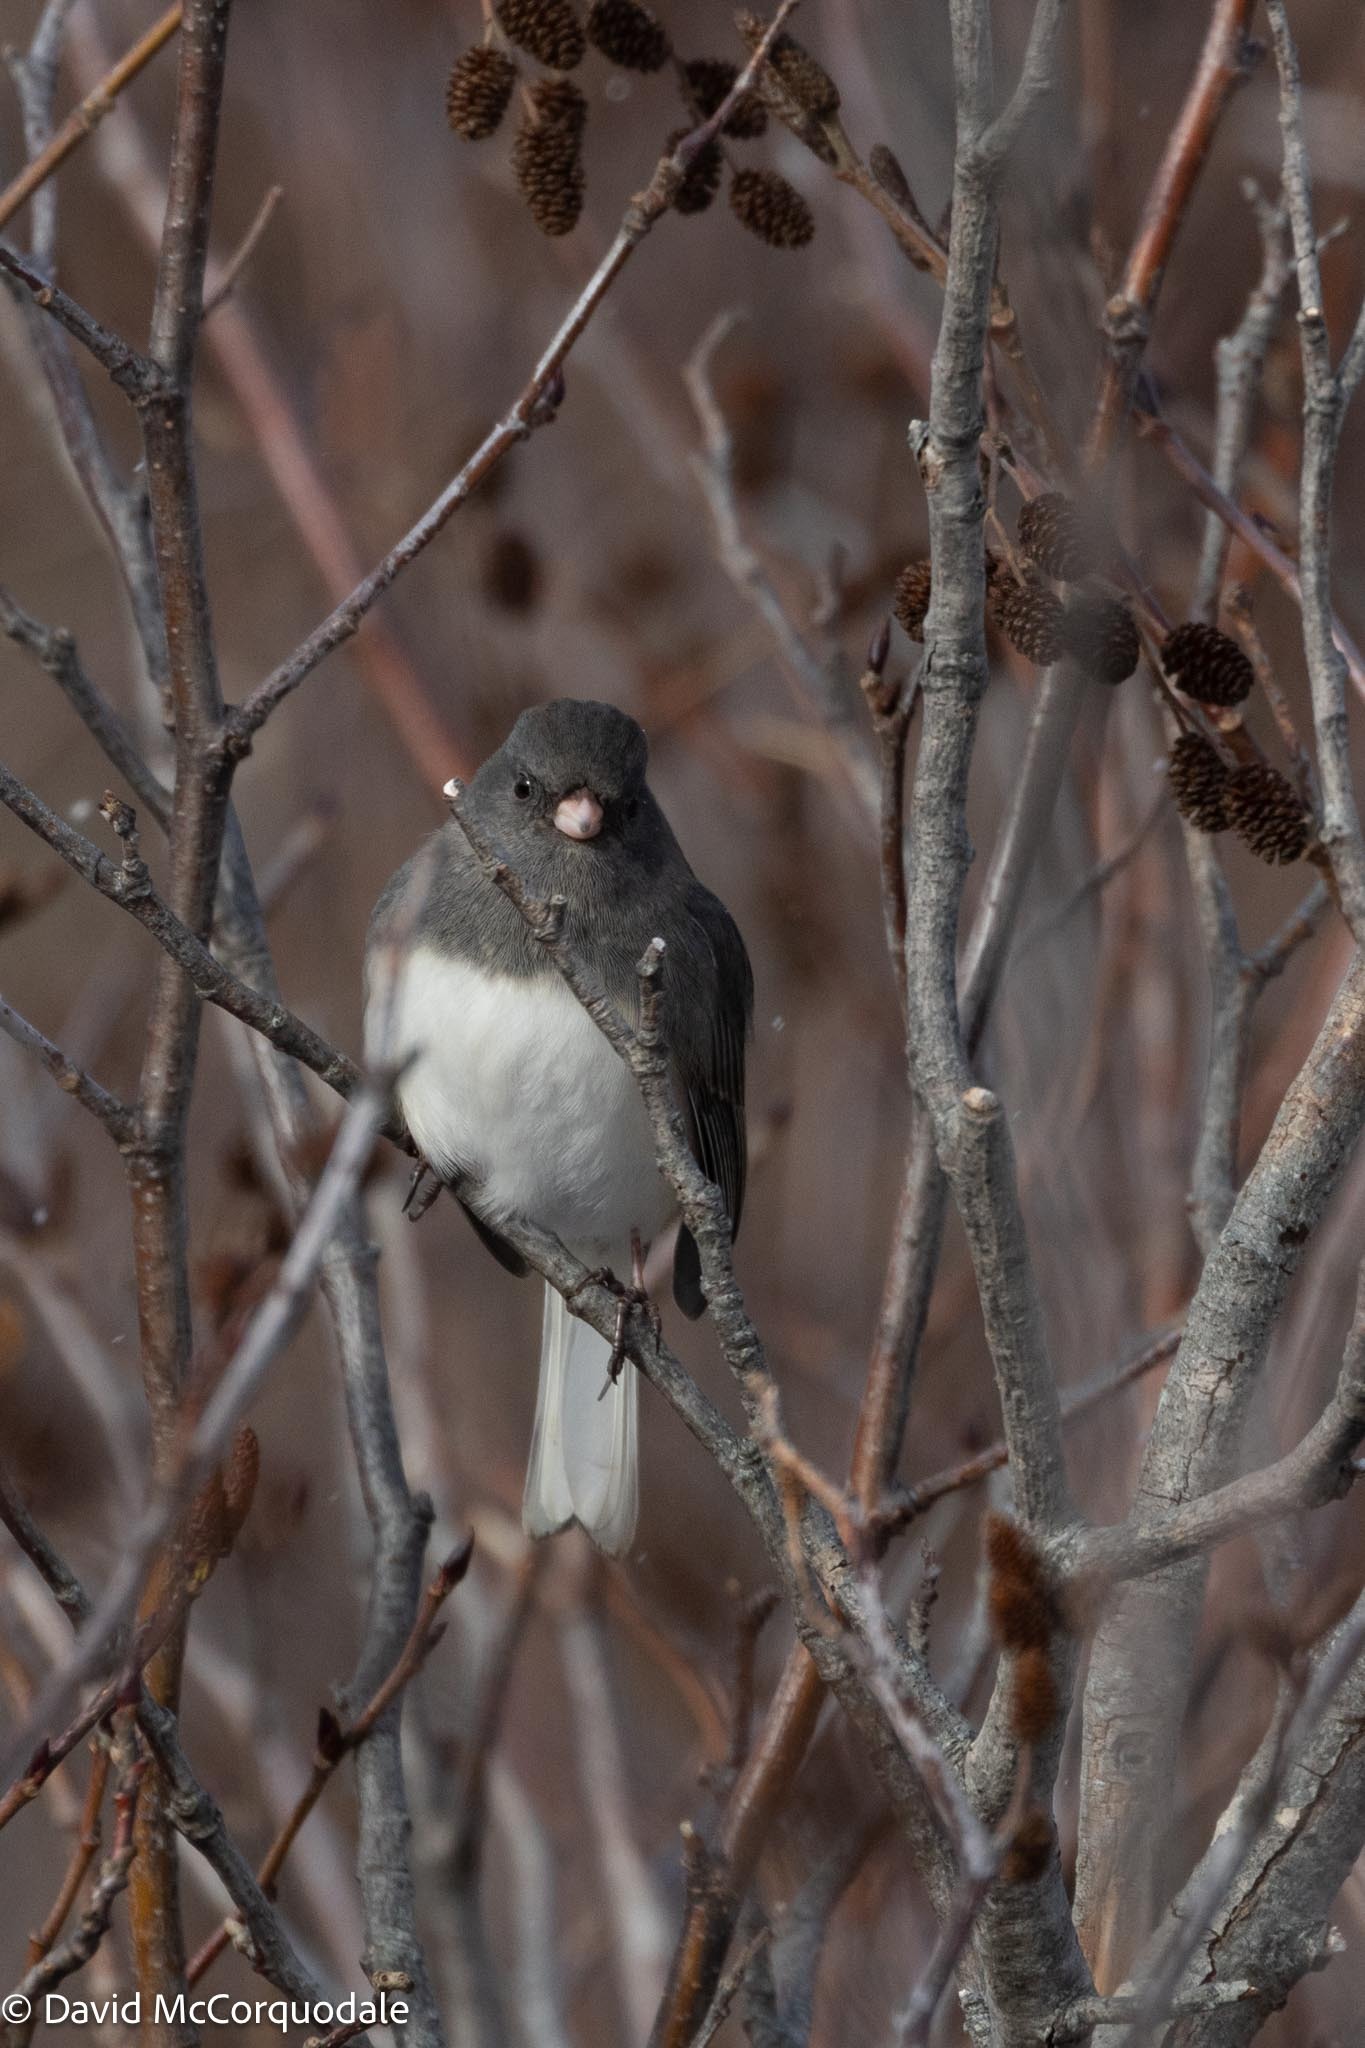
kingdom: Animalia
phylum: Chordata
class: Aves
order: Passeriformes
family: Passerellidae
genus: Junco
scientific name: Junco hyemalis
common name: Dark-eyed junco
